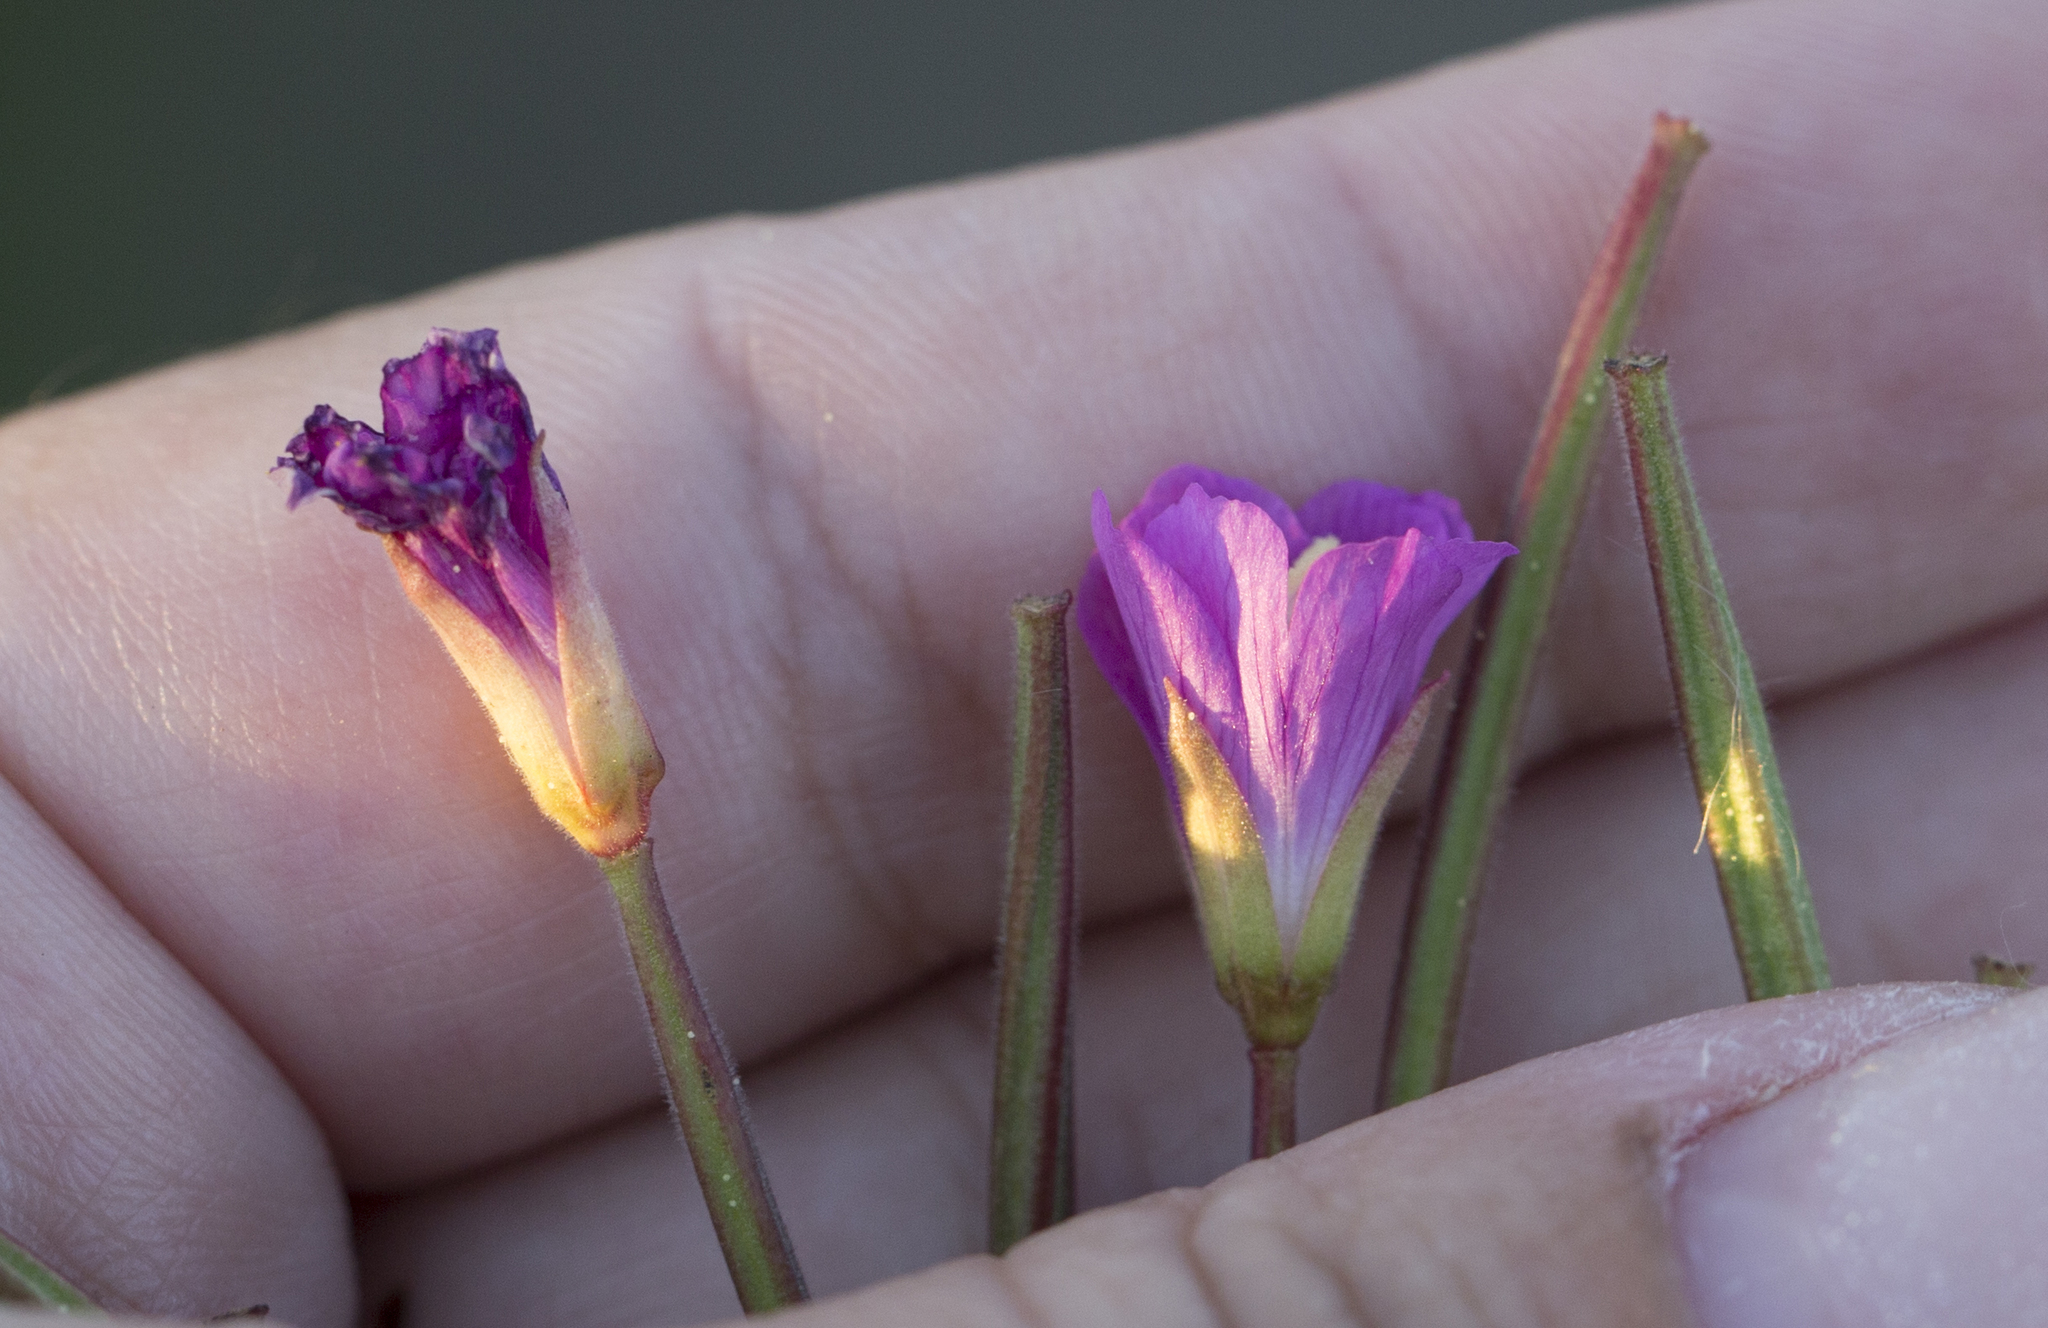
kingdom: Plantae
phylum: Tracheophyta
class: Magnoliopsida
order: Myrtales
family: Onagraceae
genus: Epilobium
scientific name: Epilobium hirsutum
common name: Great willowherb
